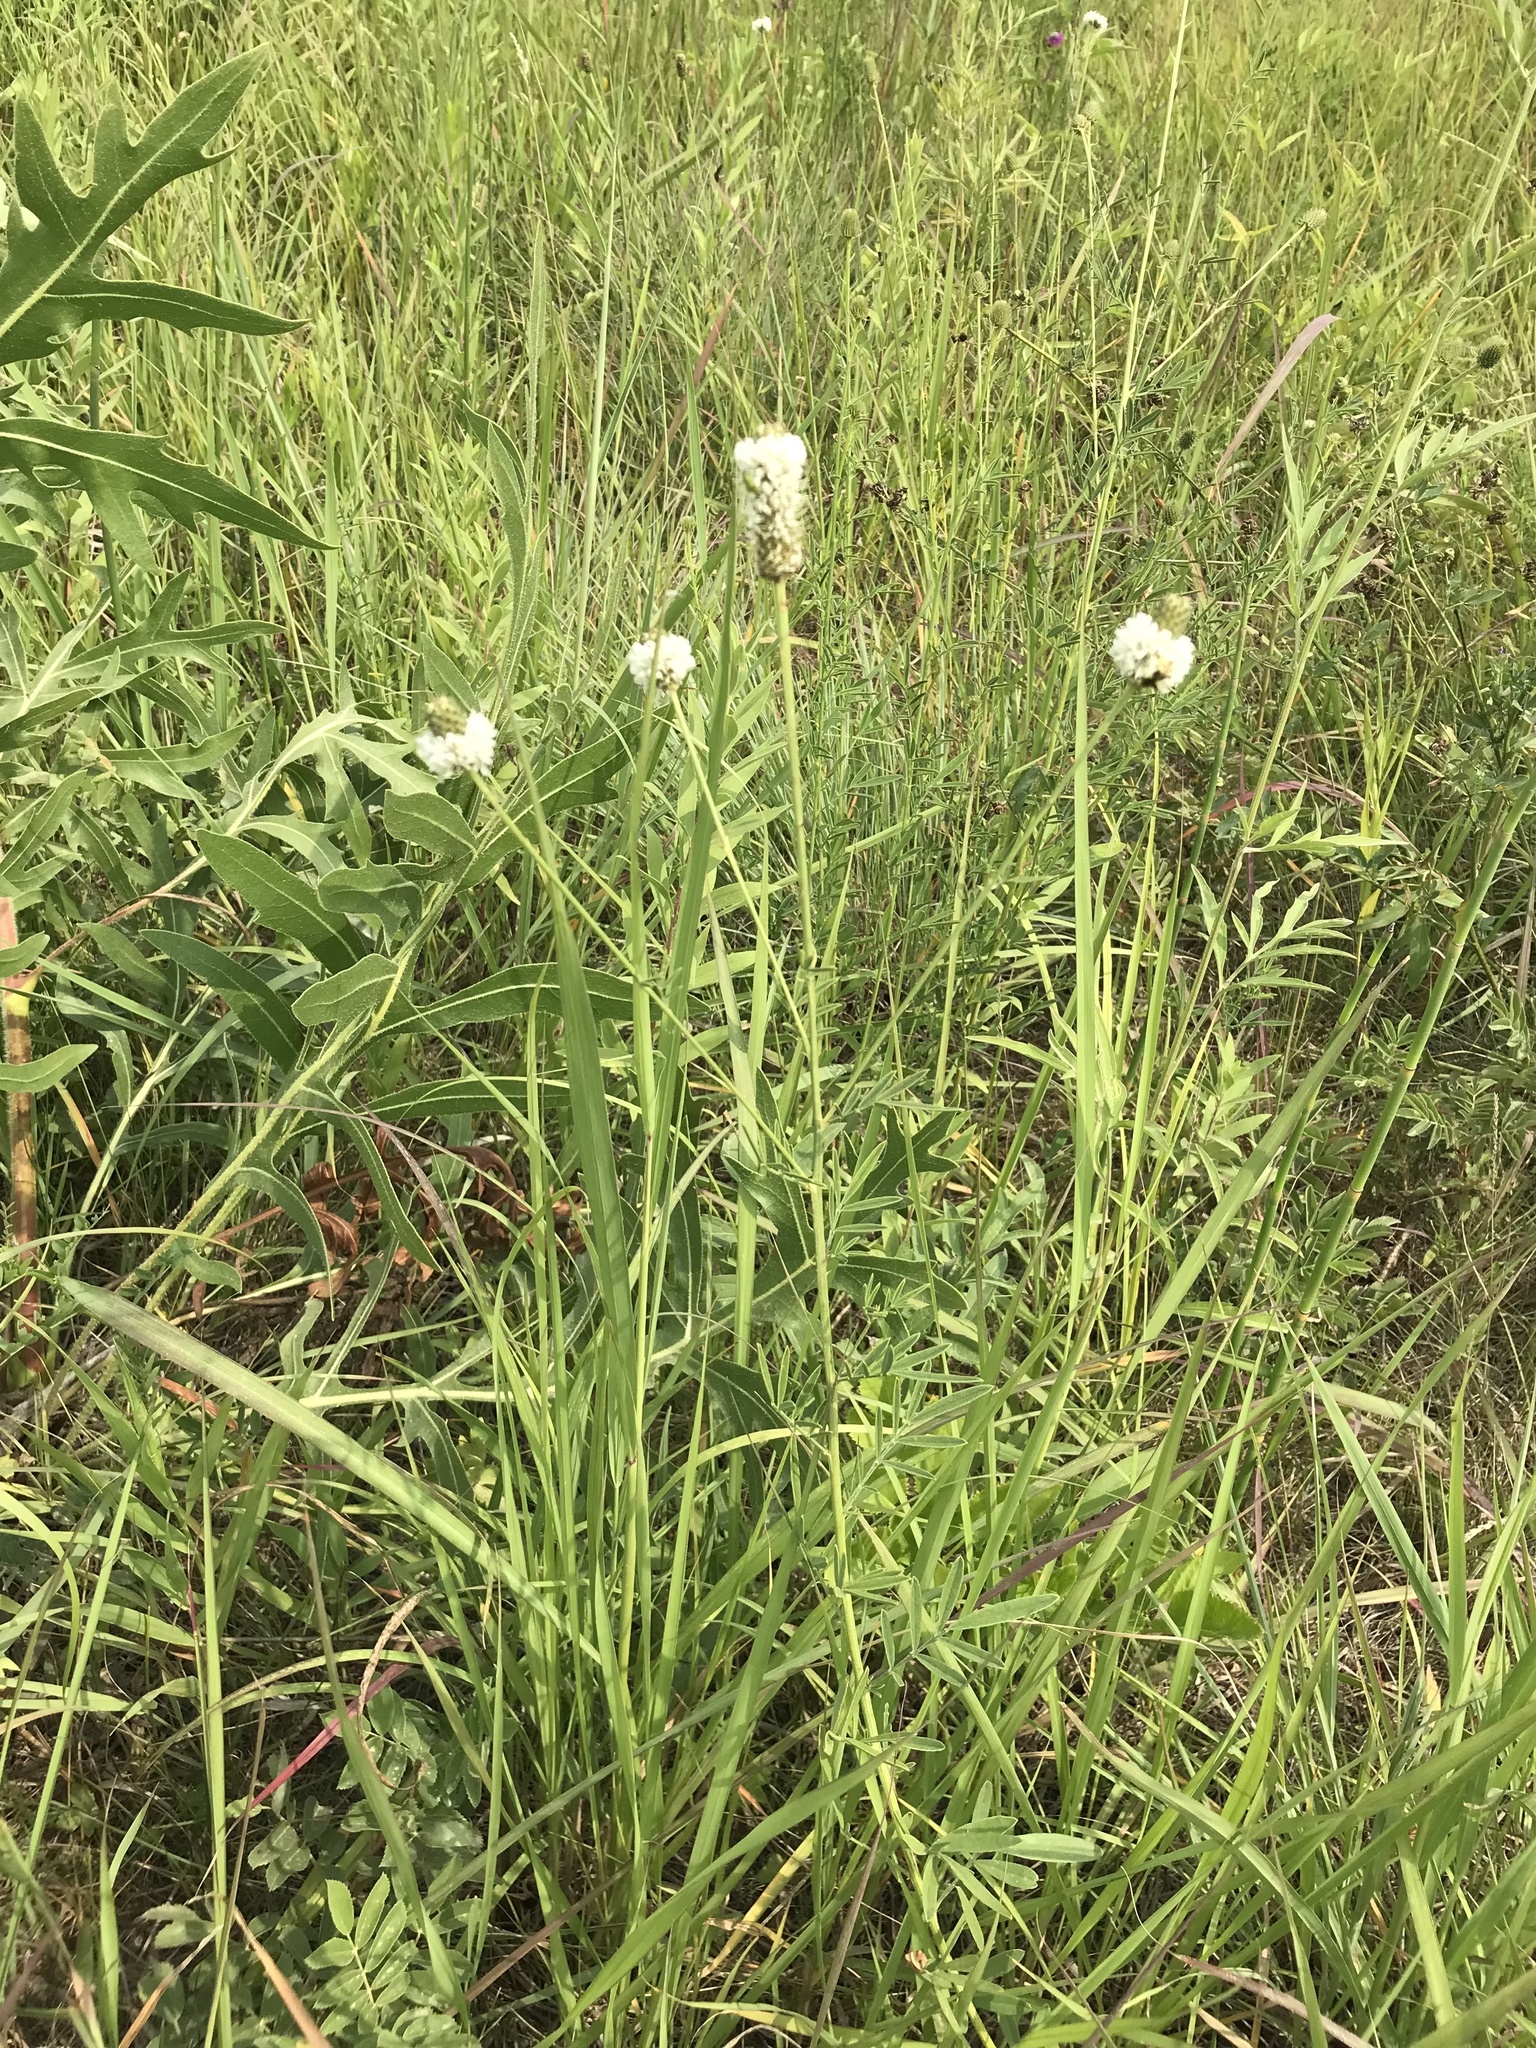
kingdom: Plantae
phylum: Tracheophyta
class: Magnoliopsida
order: Fabales
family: Fabaceae
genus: Dalea
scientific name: Dalea candida
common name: White prairie-clover
